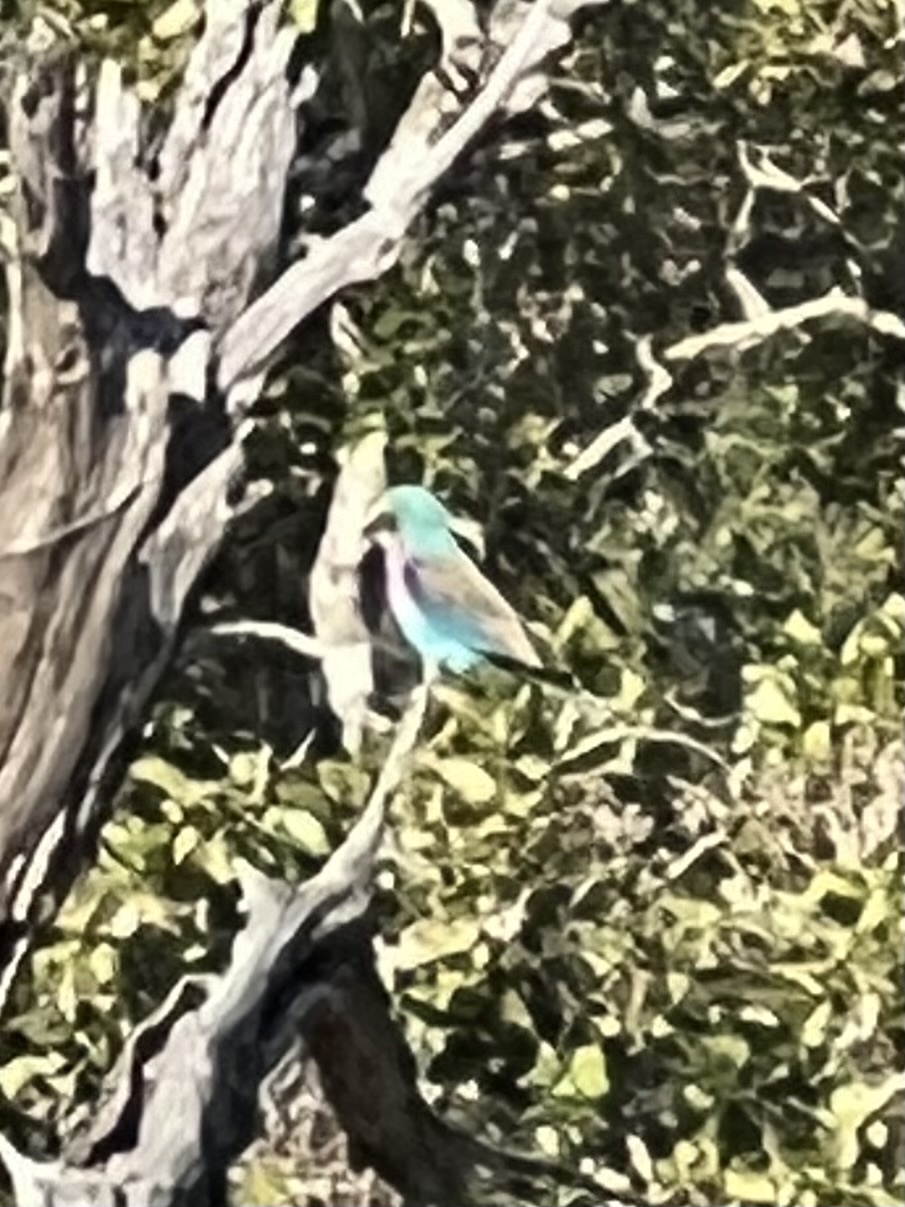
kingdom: Animalia
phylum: Chordata
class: Aves
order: Coraciiformes
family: Coraciidae
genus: Coracias
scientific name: Coracias caudatus
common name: Lilac-breasted roller
